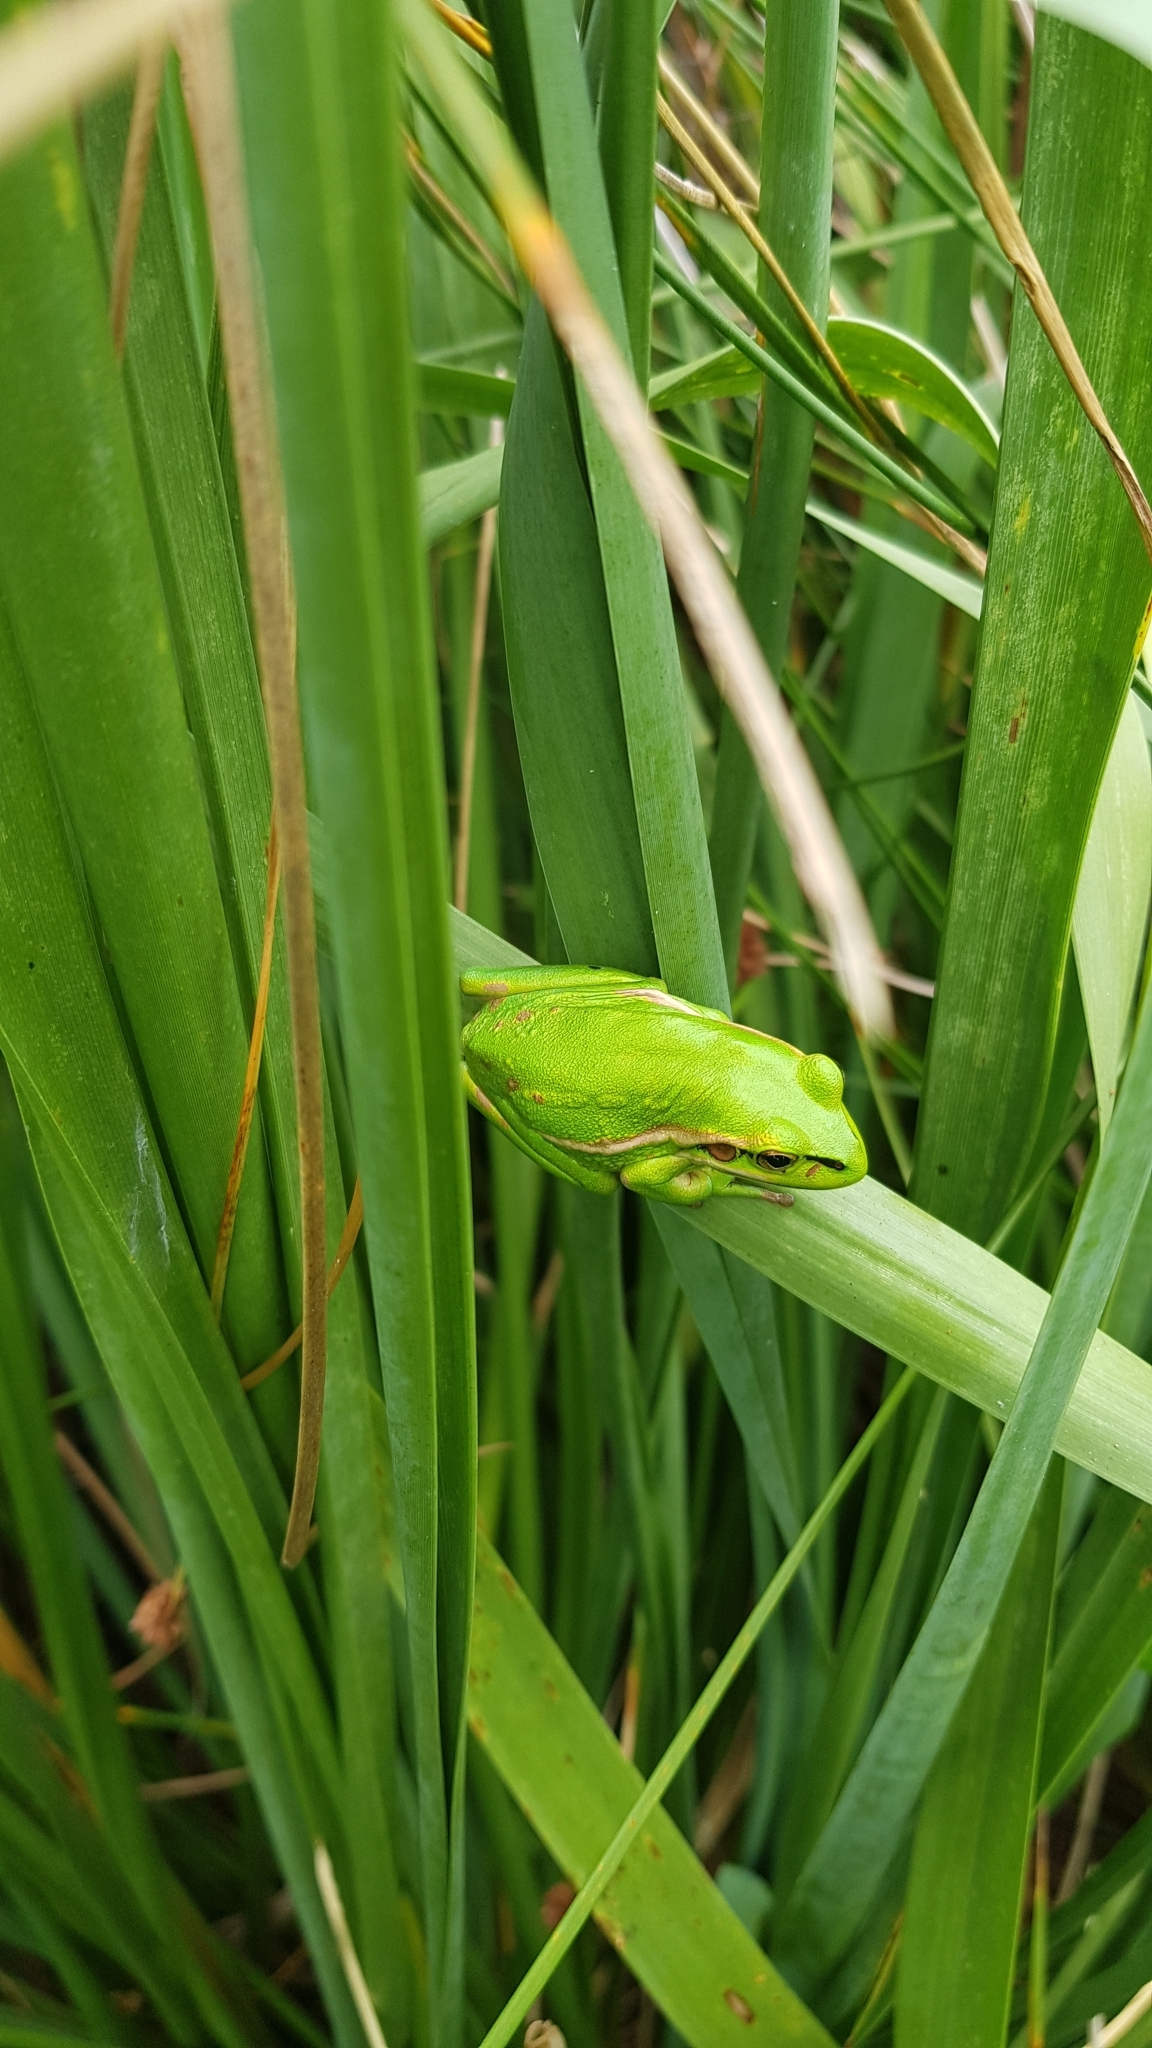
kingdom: Animalia
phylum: Chordata
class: Amphibia
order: Anura
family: Pelodryadidae
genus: Ranoidea
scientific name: Ranoidea aurea
